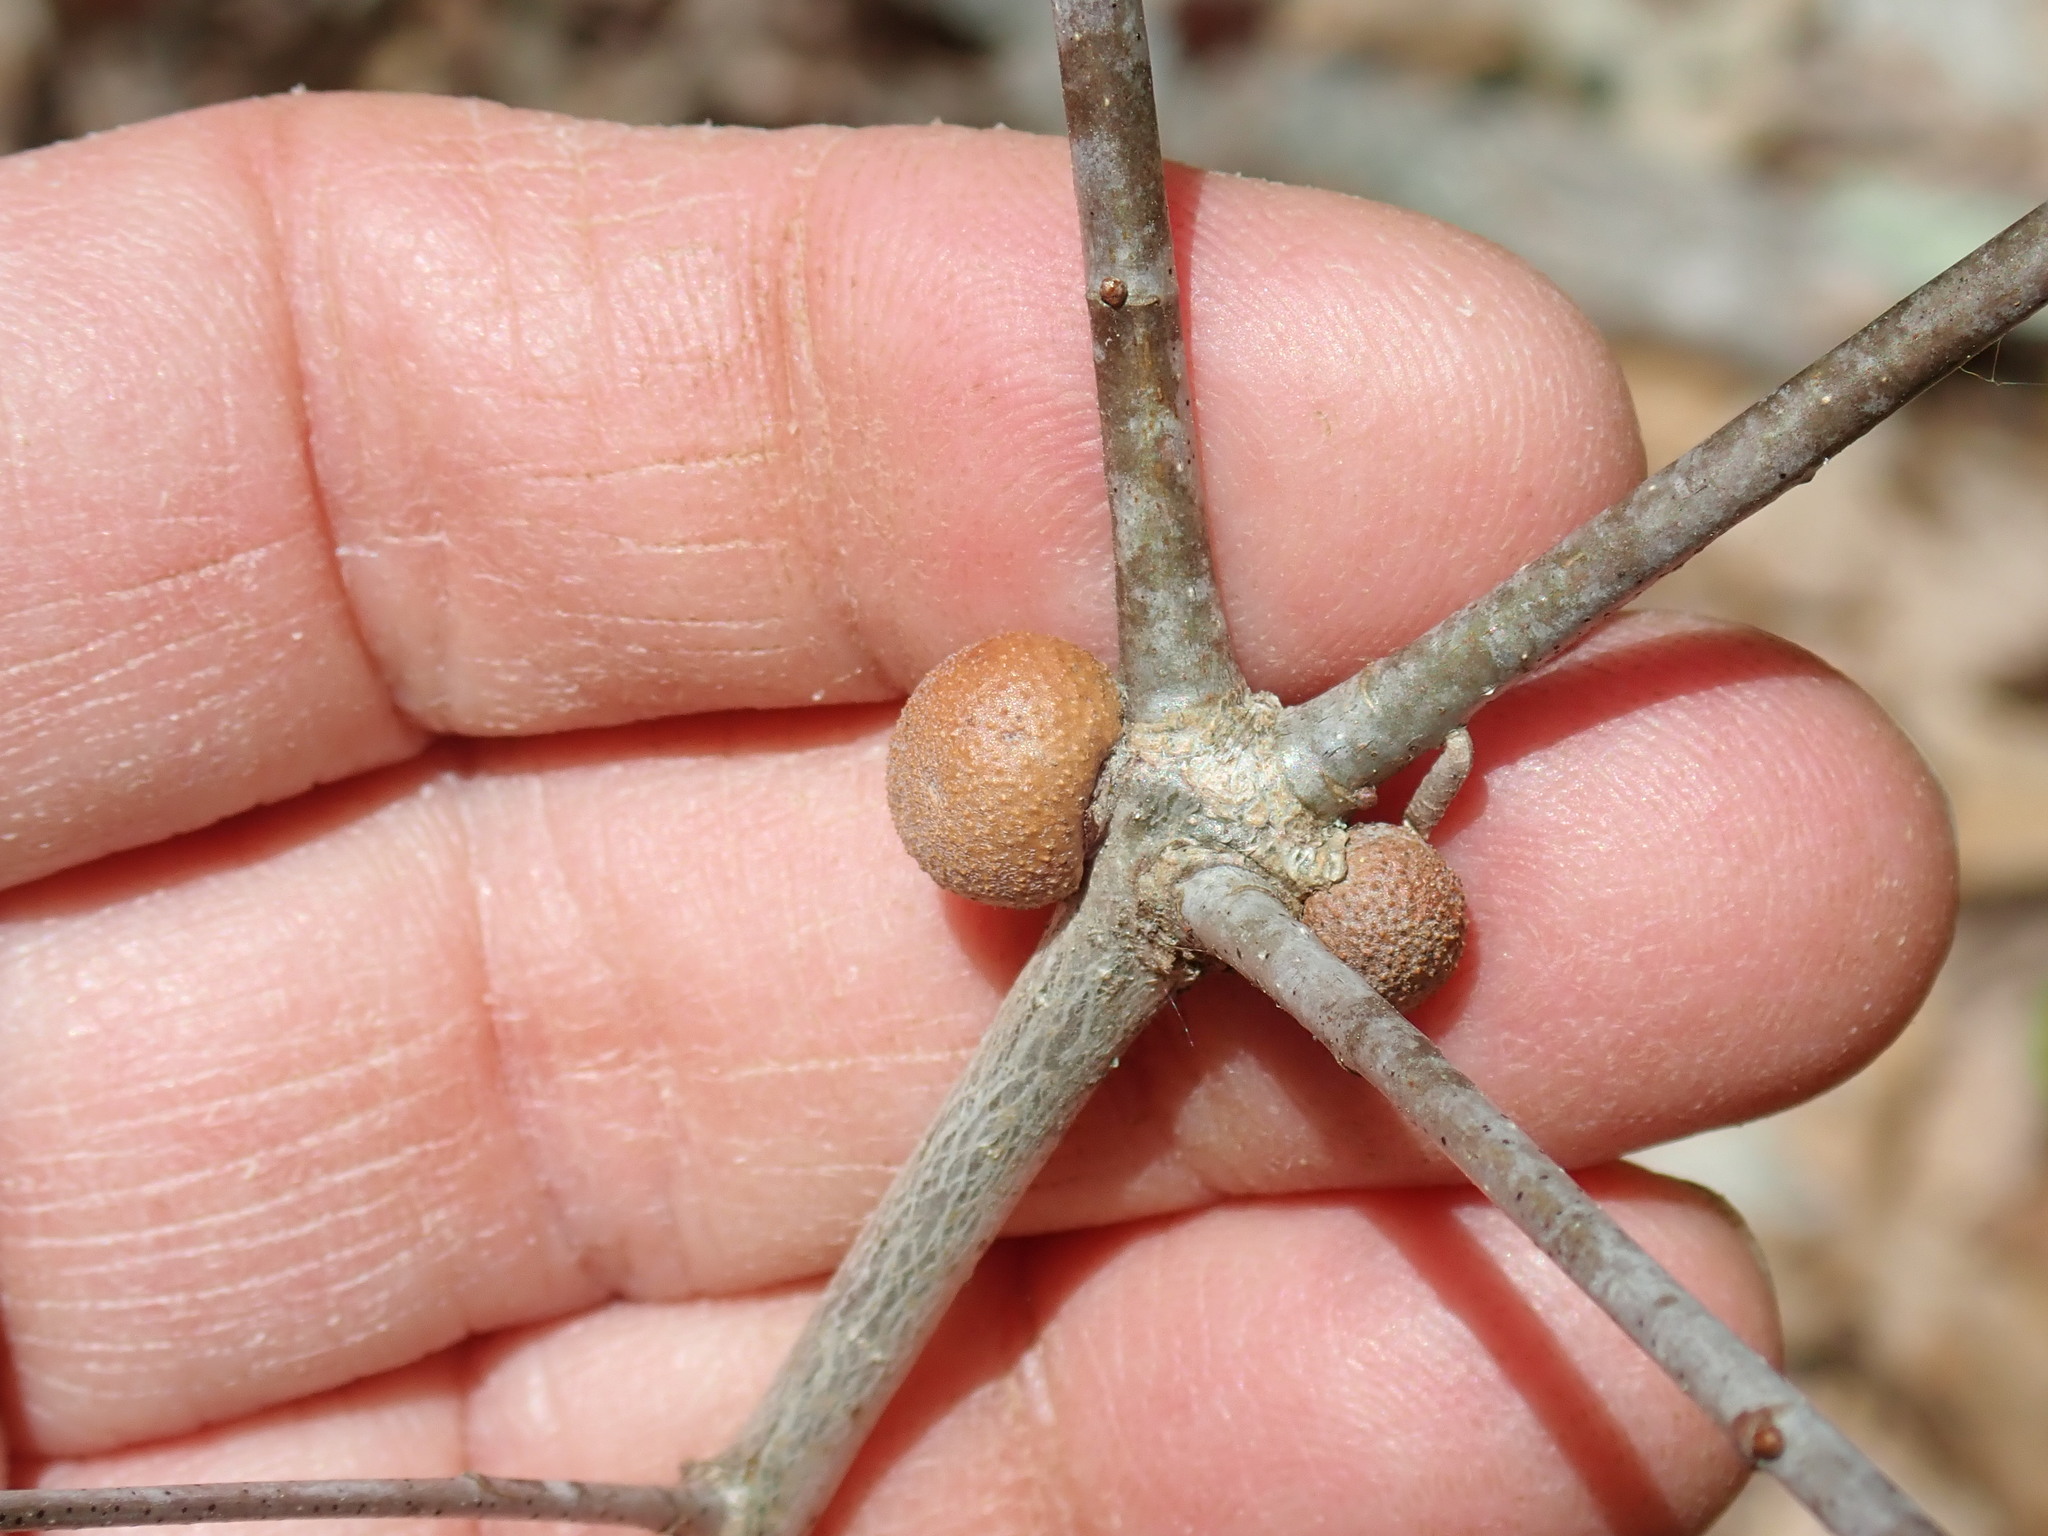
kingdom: Animalia
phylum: Arthropoda
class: Insecta
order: Hymenoptera
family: Cynipidae
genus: Disholcaspis
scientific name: Disholcaspis quercusglobulus
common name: Round bullet gall wasp
